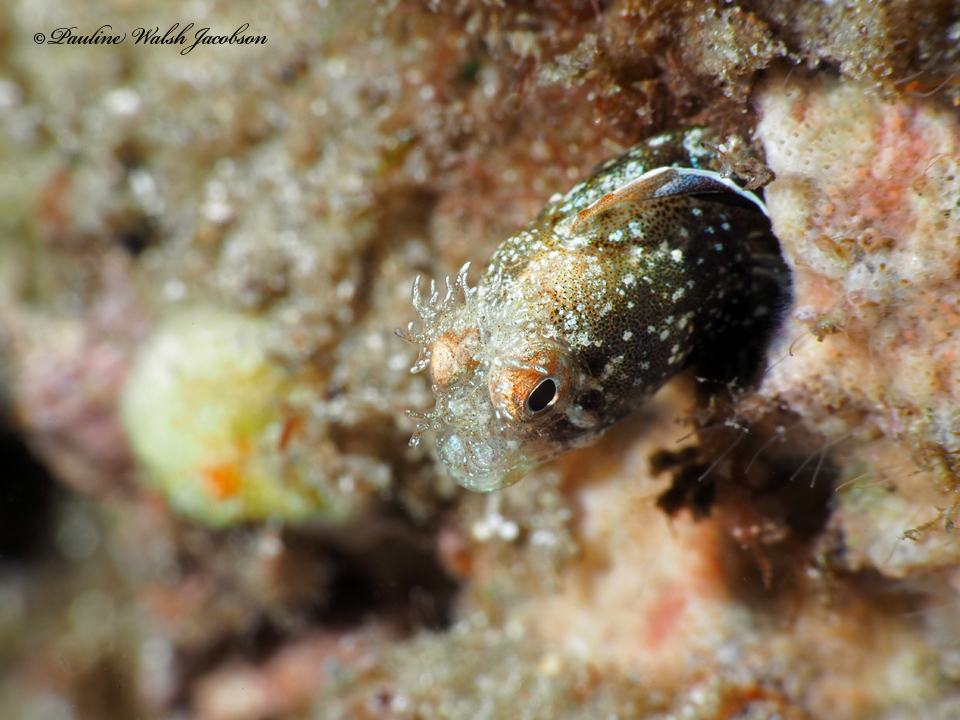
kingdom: Animalia
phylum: Chordata
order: Perciformes
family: Chaenopsidae
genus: Acanthemblemaria
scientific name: Acanthemblemaria aspera
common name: Roughhead blenny
